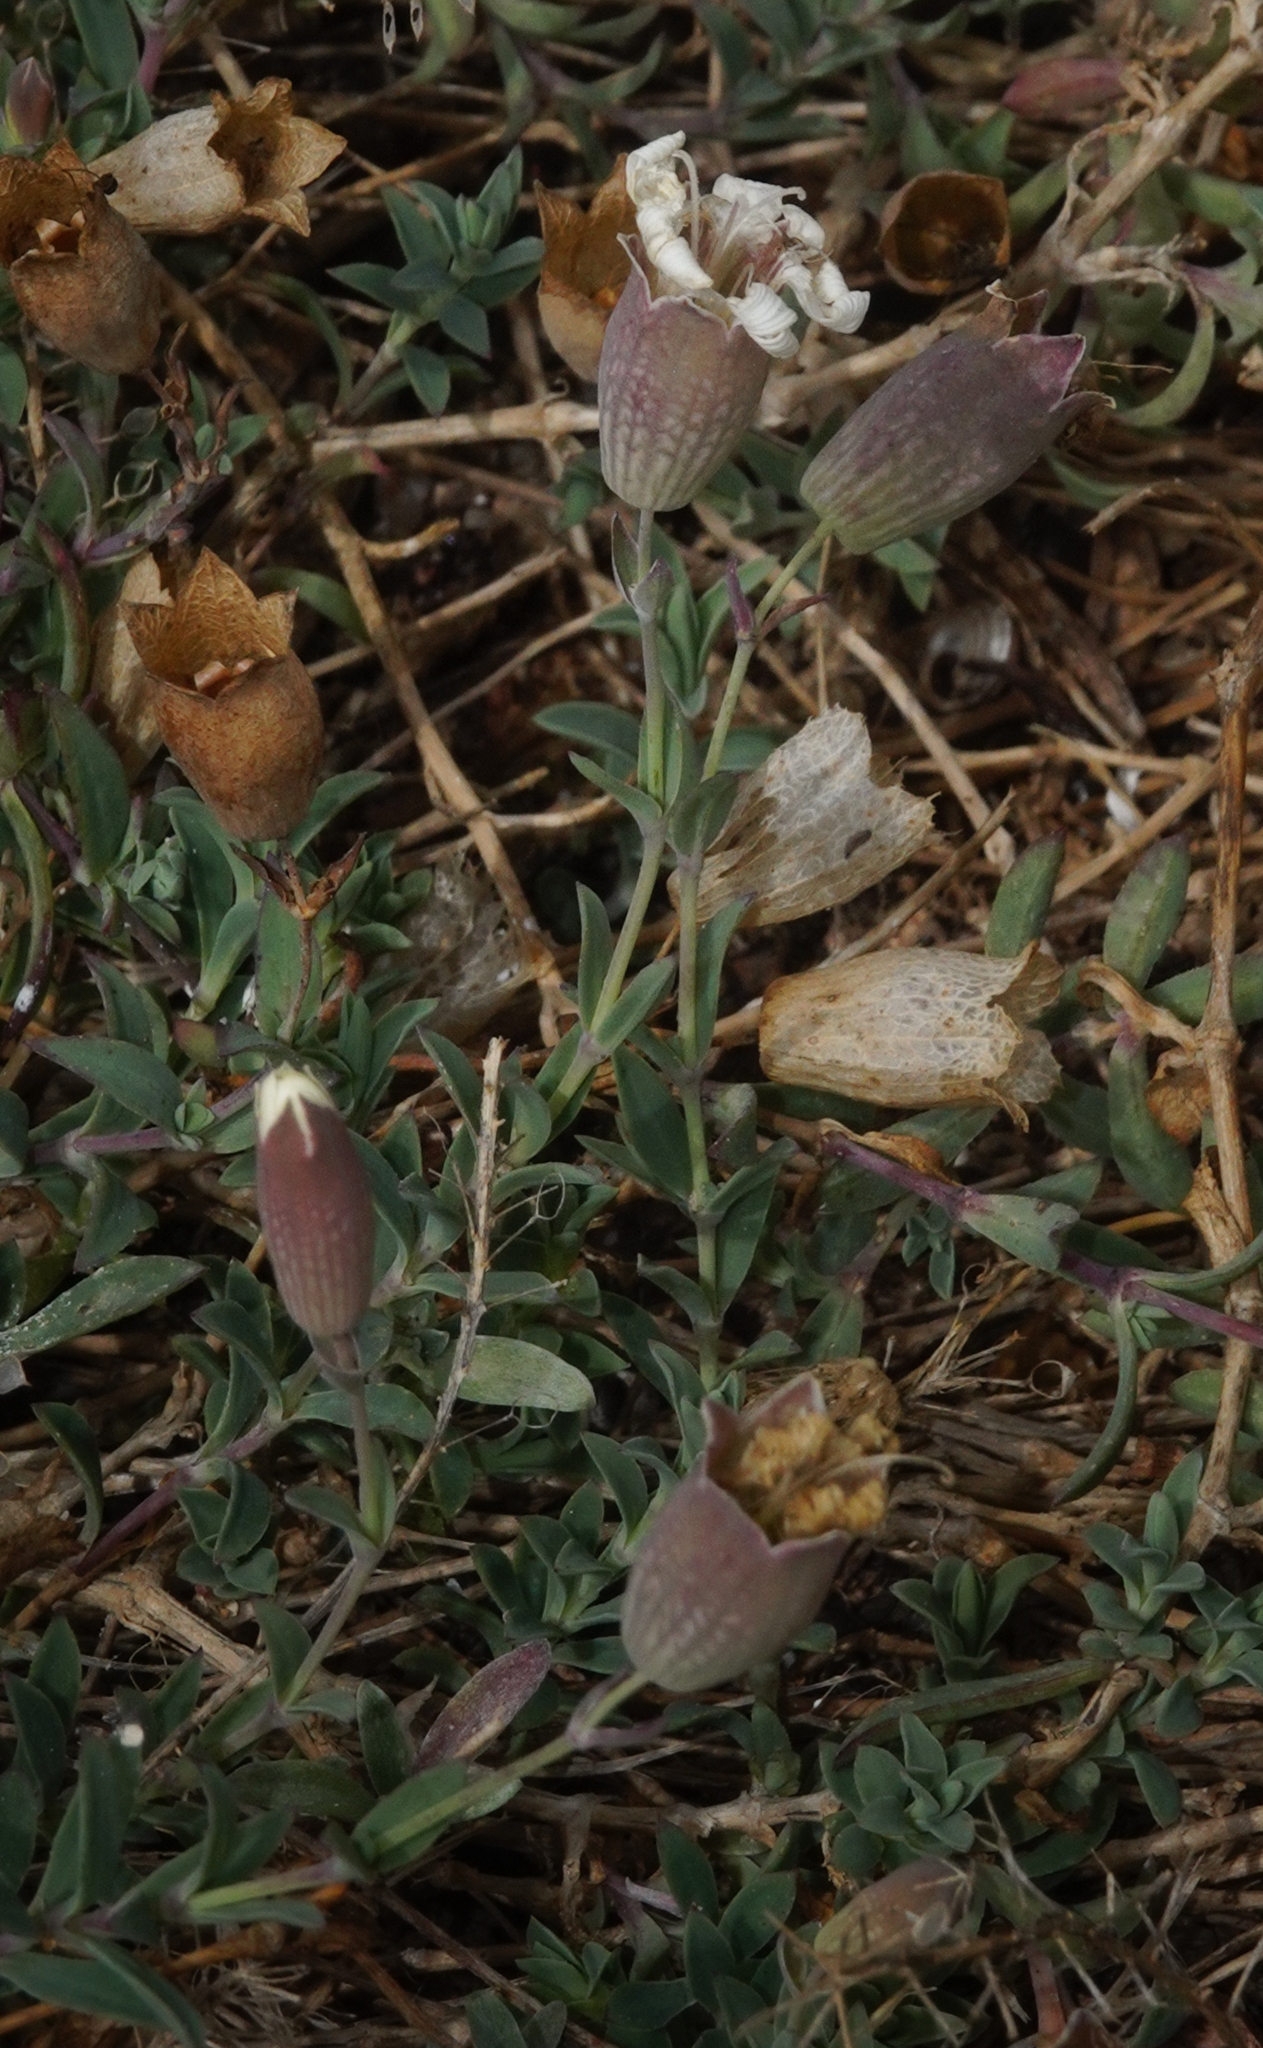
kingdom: Plantae
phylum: Tracheophyta
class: Magnoliopsida
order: Caryophyllales
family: Caryophyllaceae
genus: Silene
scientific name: Silene uniflora
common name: Sea campion
